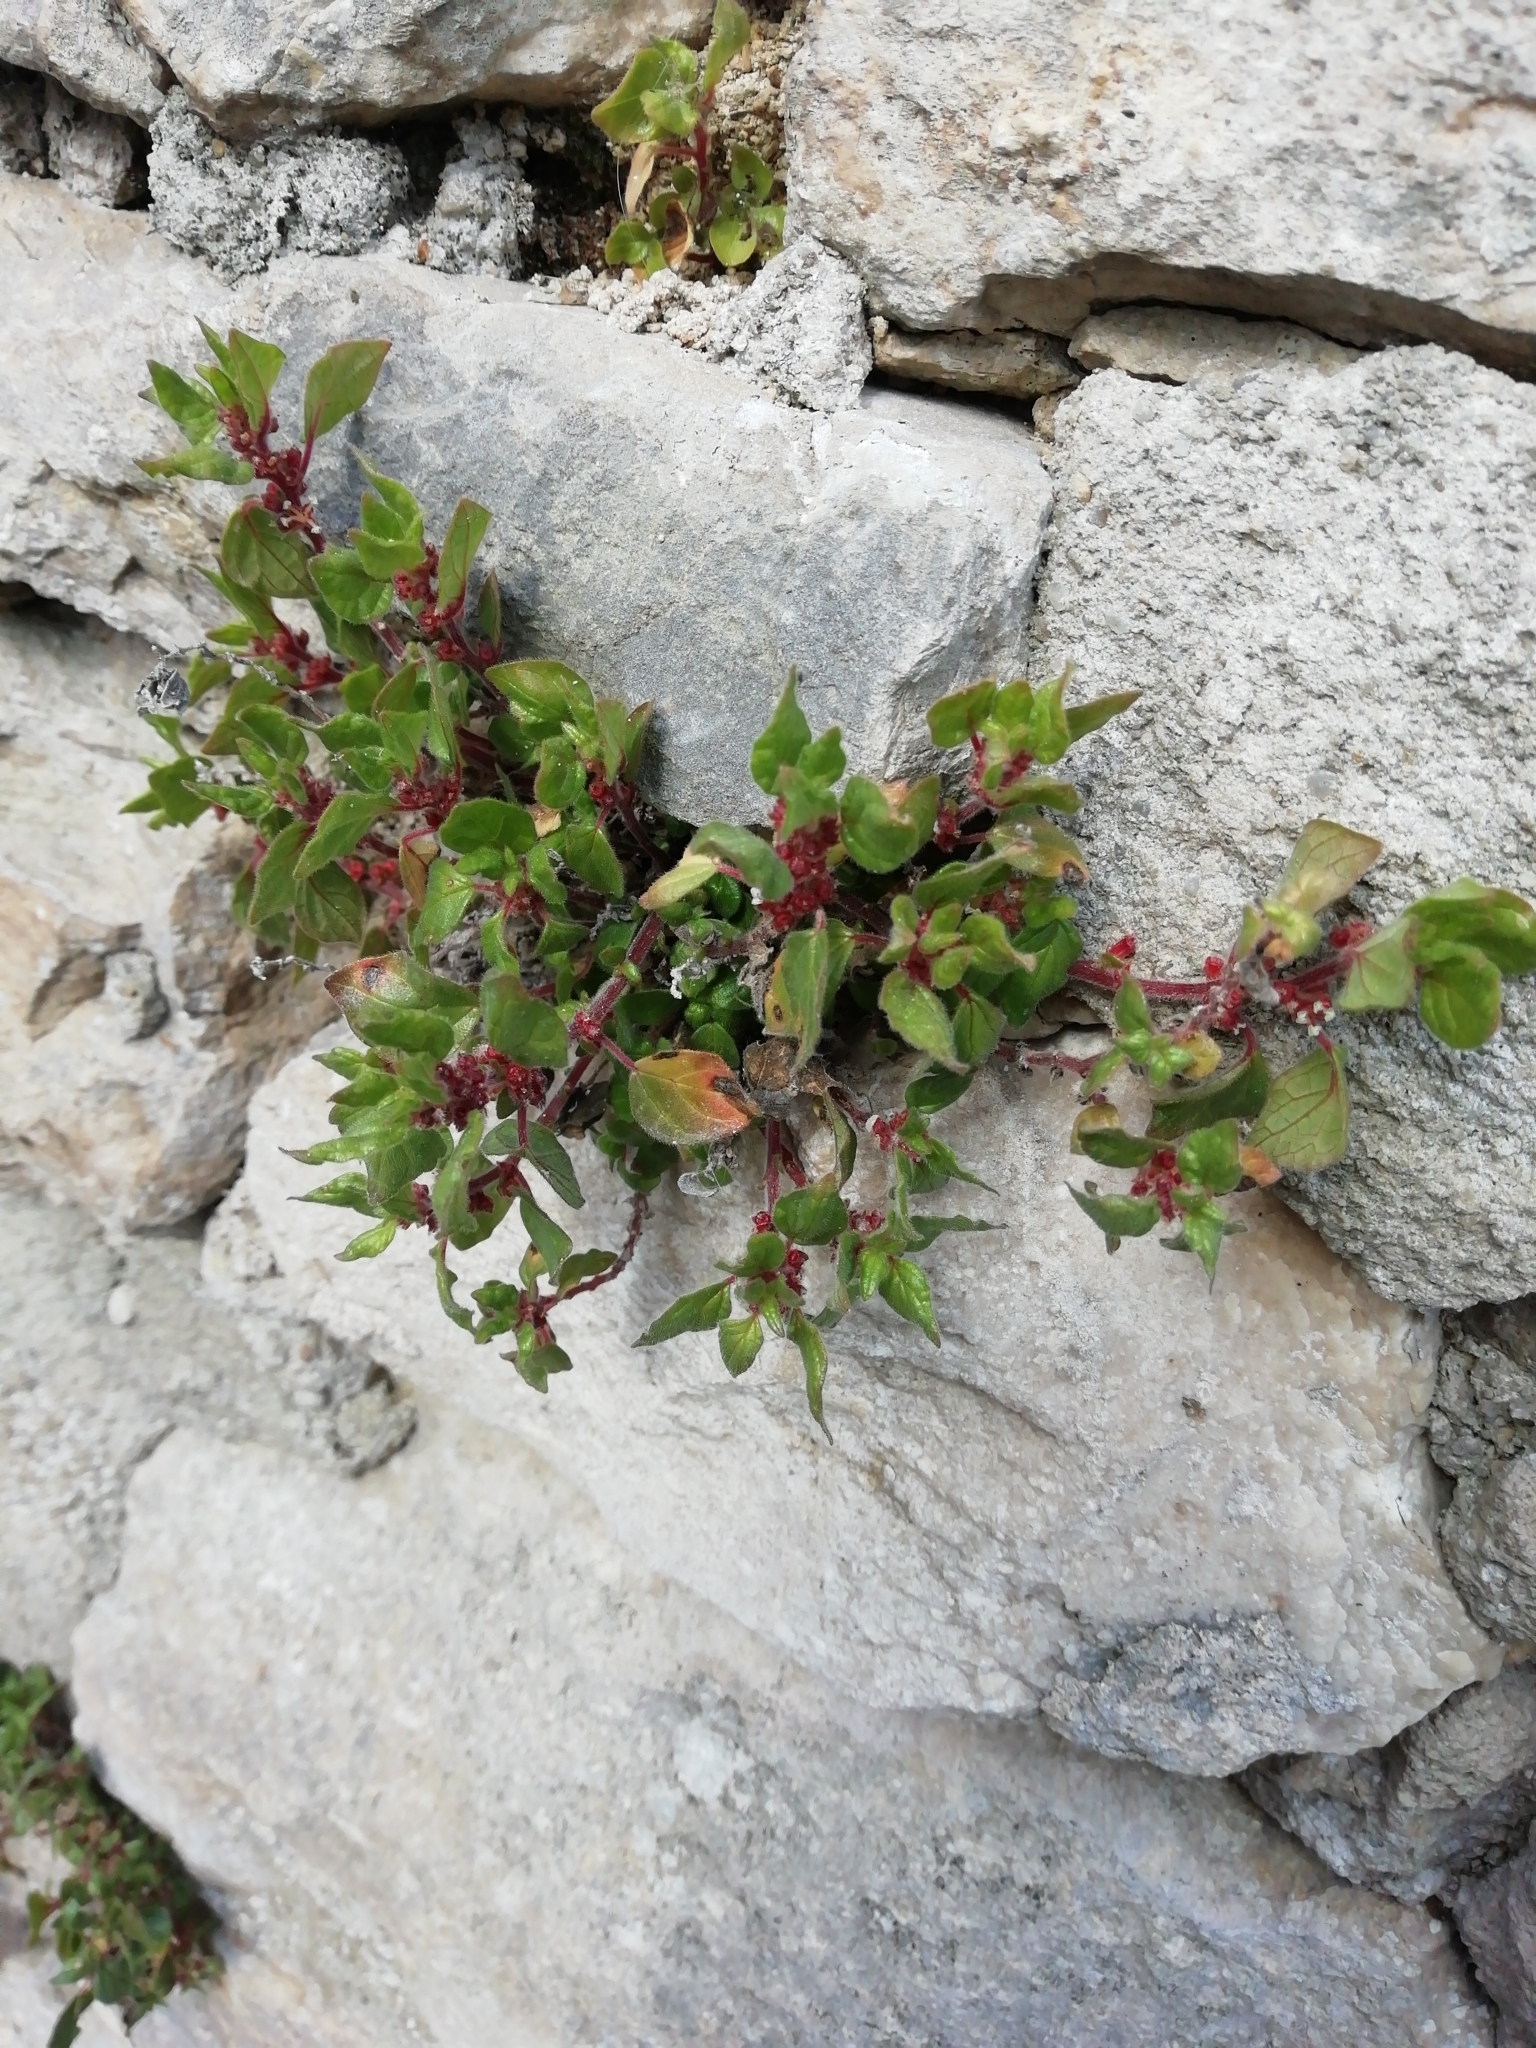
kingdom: Plantae
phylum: Tracheophyta
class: Magnoliopsida
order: Rosales
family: Urticaceae
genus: Parietaria
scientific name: Parietaria judaica
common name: Pellitory-of-the-wall
